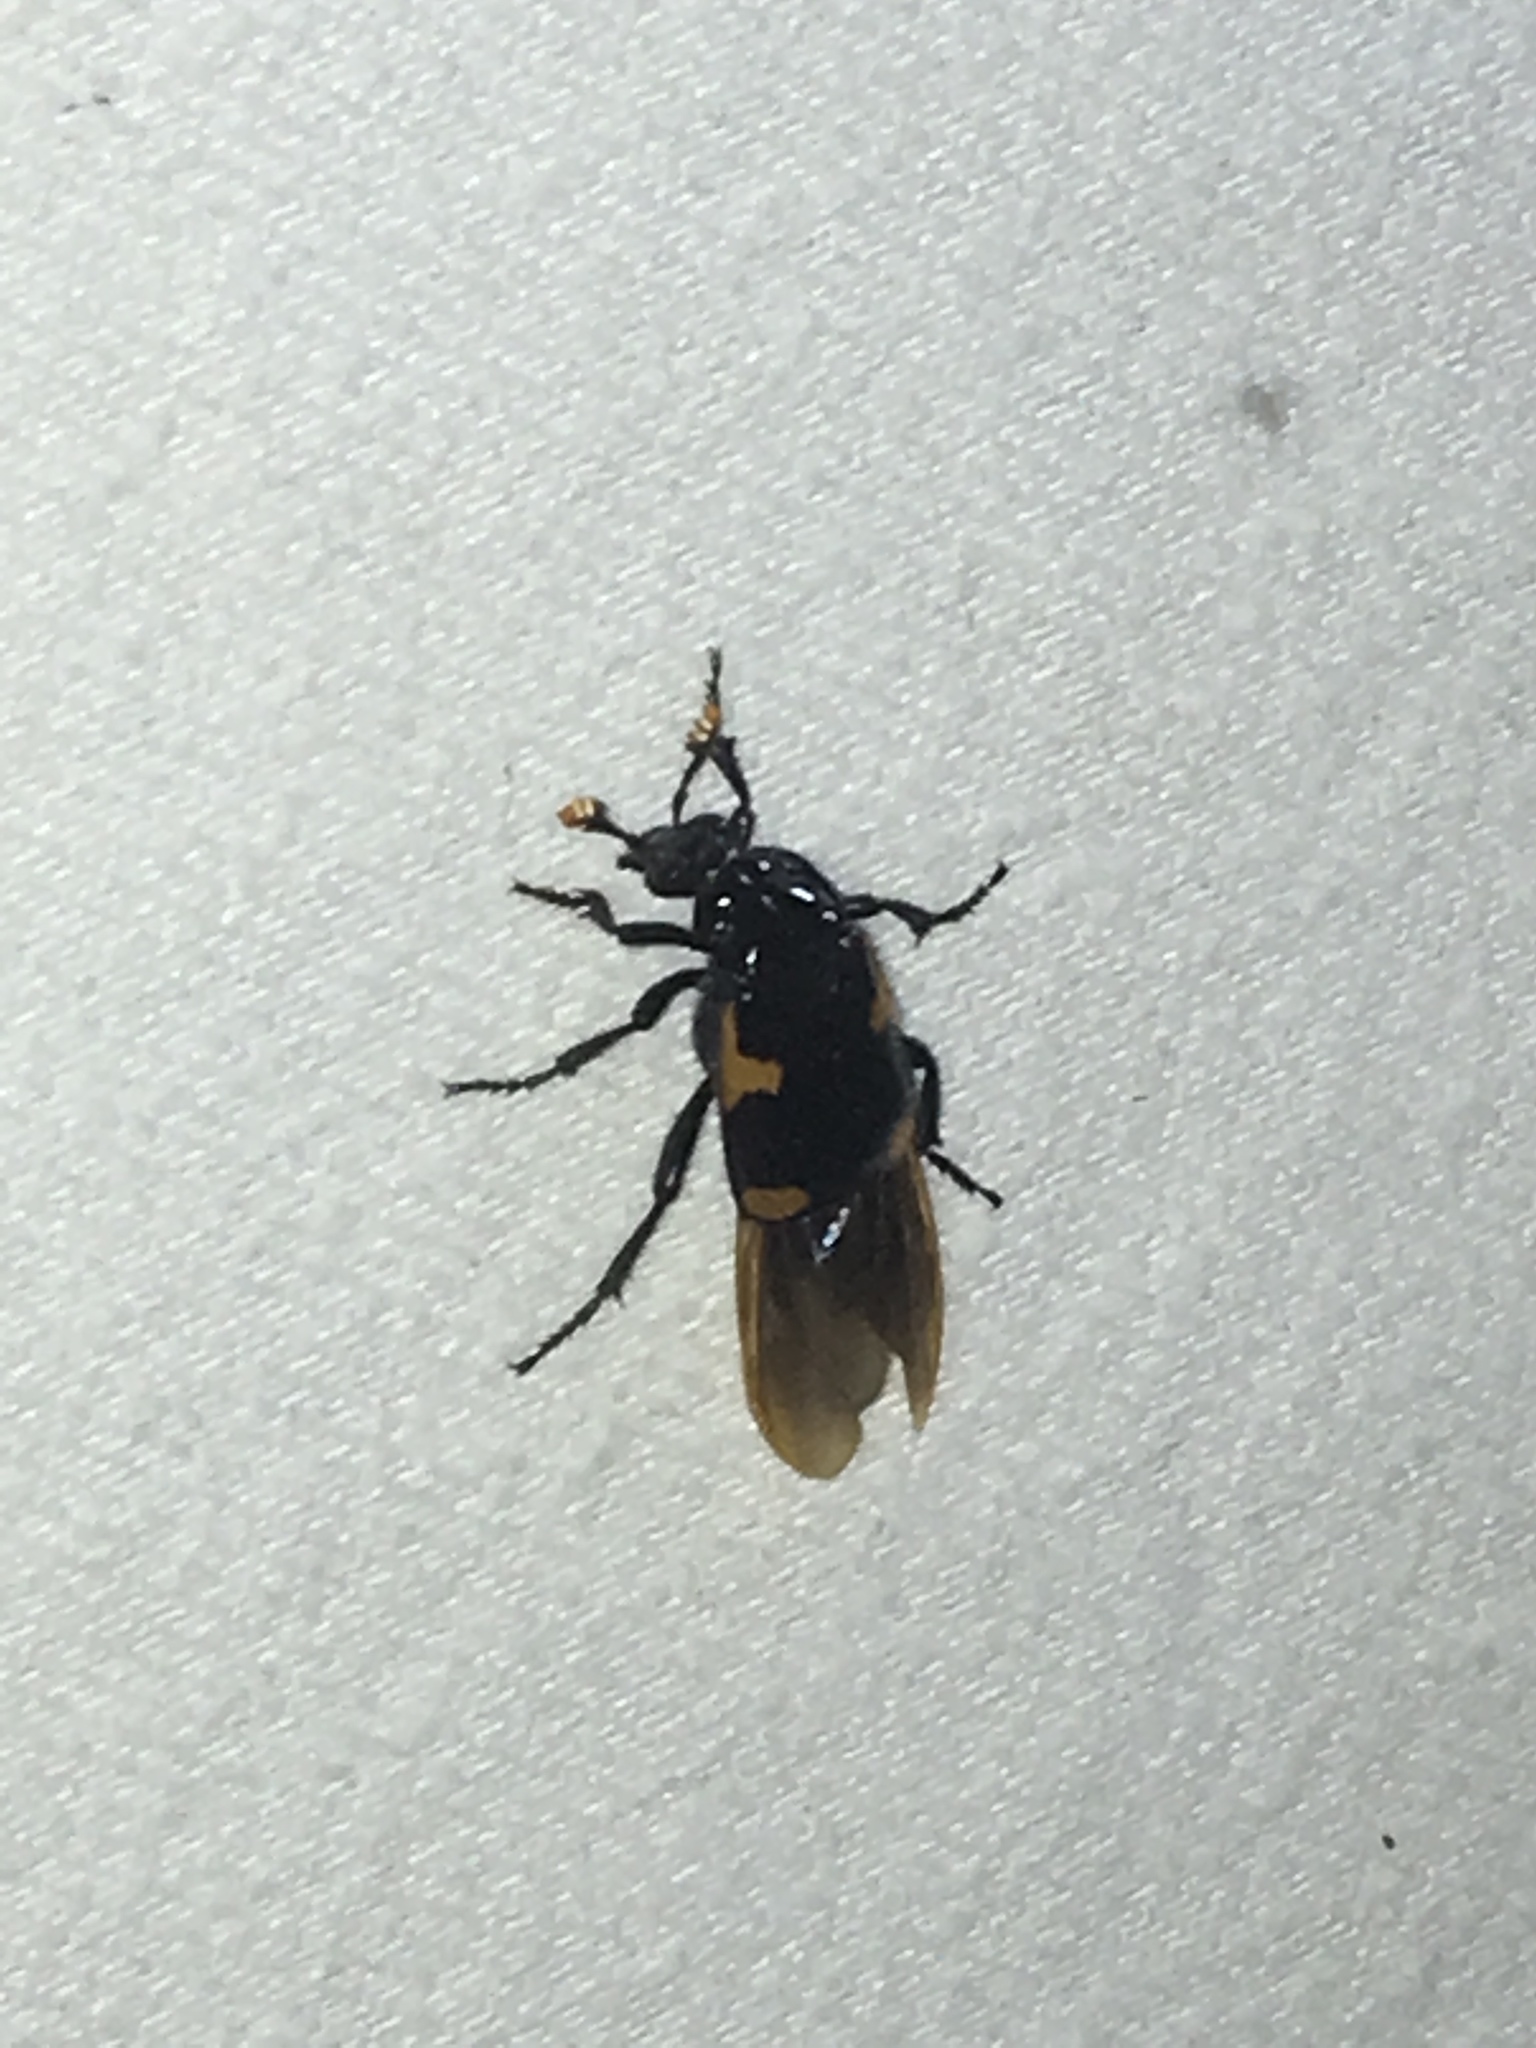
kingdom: Animalia
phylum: Arthropoda
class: Insecta
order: Coleoptera
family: Staphylinidae
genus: Nicrophorus
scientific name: Nicrophorus quadrimaculatus
